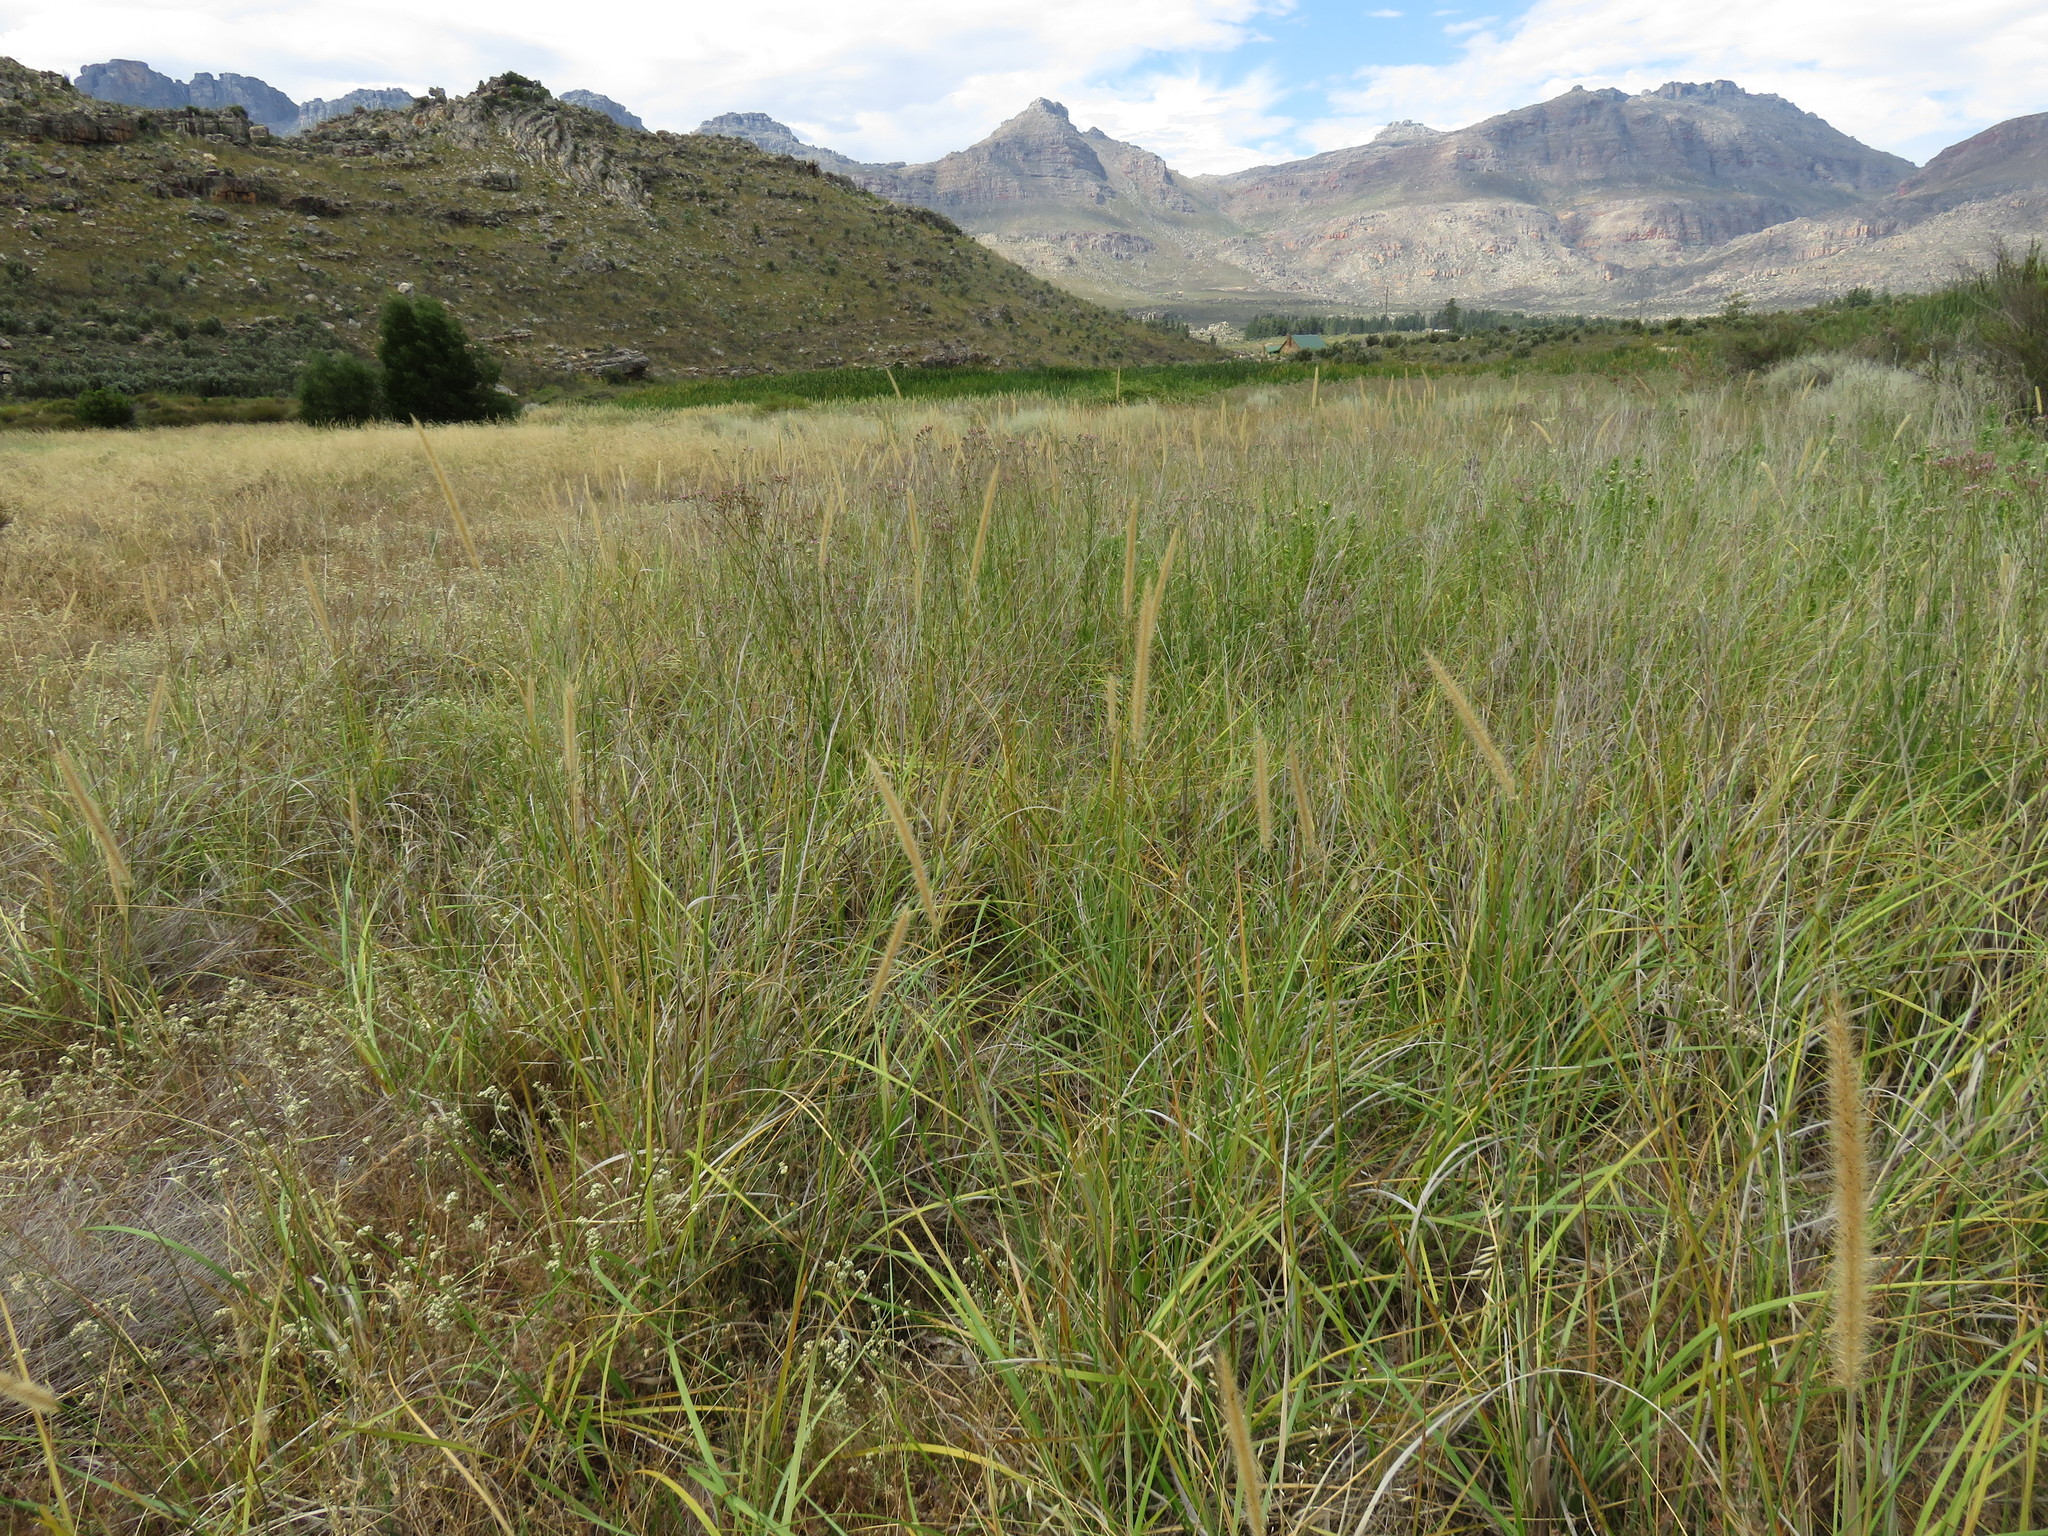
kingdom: Plantae
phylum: Tracheophyta
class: Liliopsida
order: Poales
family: Poaceae
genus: Cenchrus
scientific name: Cenchrus caudatus
